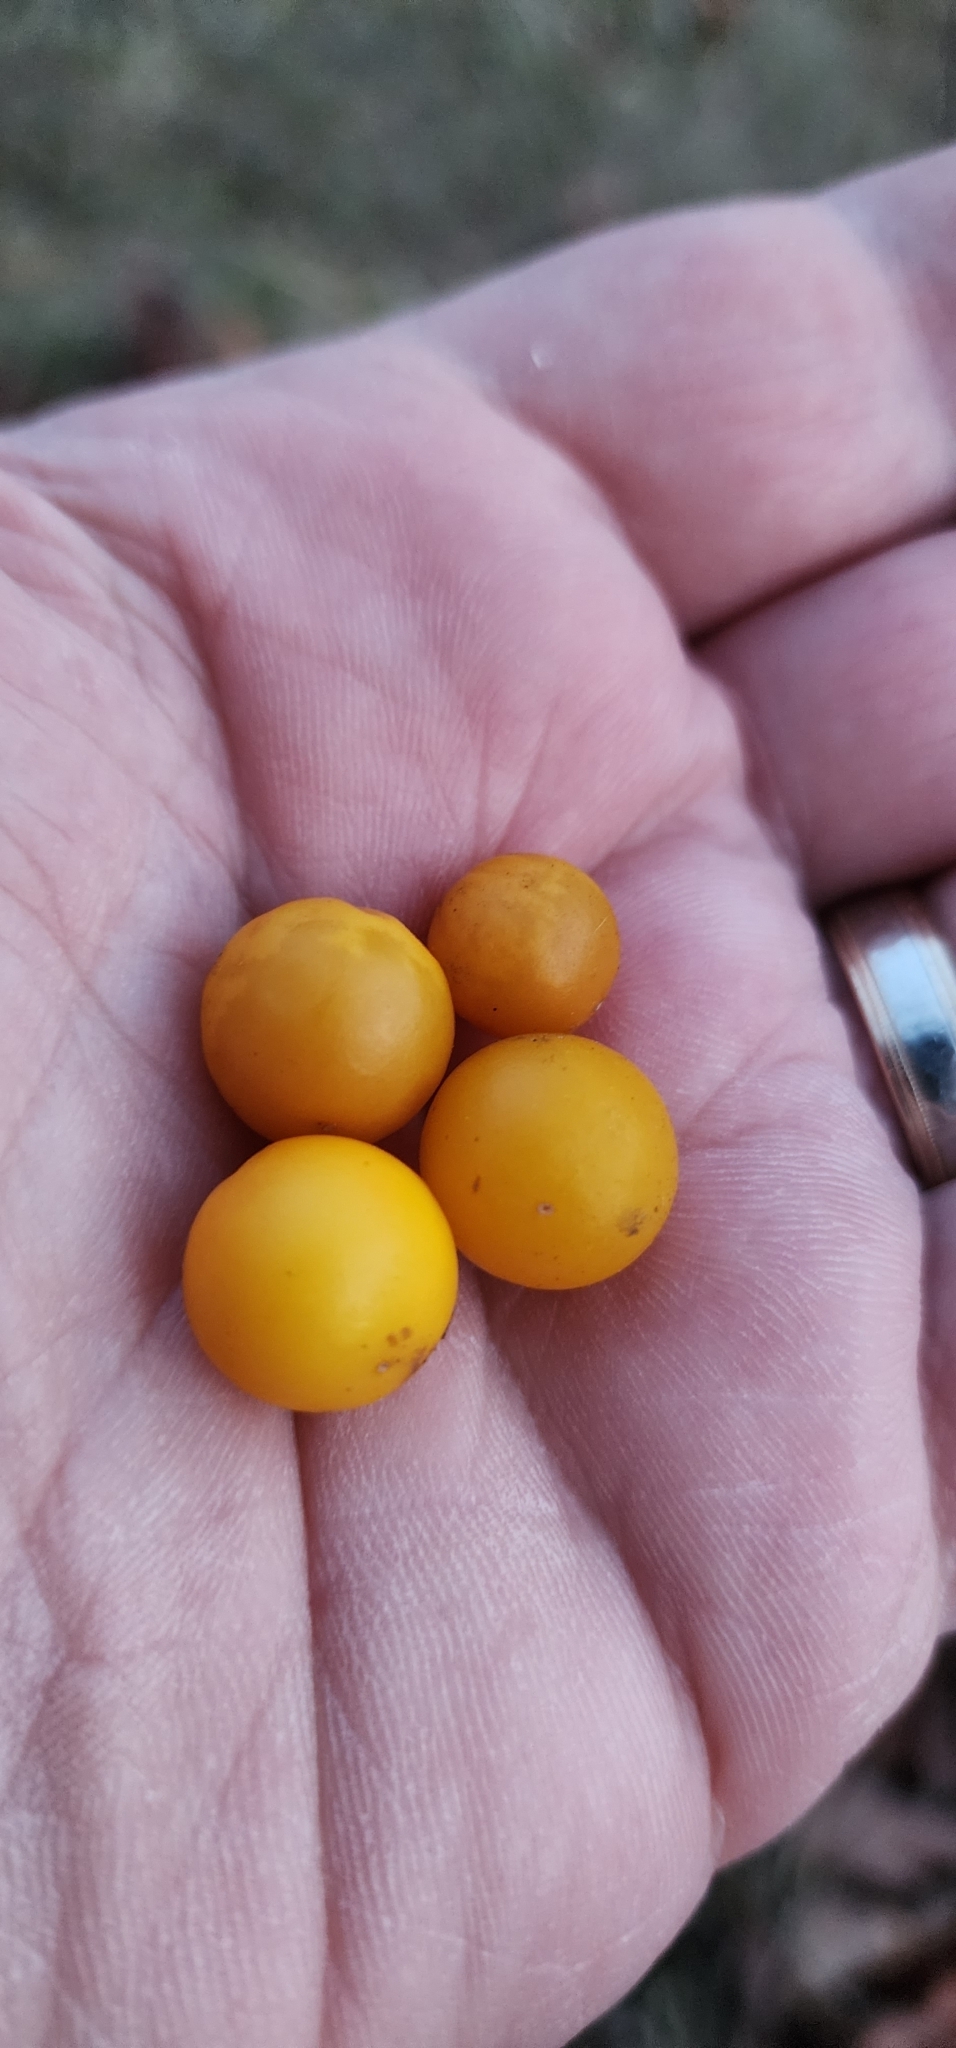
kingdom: Plantae
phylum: Tracheophyta
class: Magnoliopsida
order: Solanales
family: Solanaceae
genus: Solanum
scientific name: Solanum carolinense
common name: Horse-nettle
